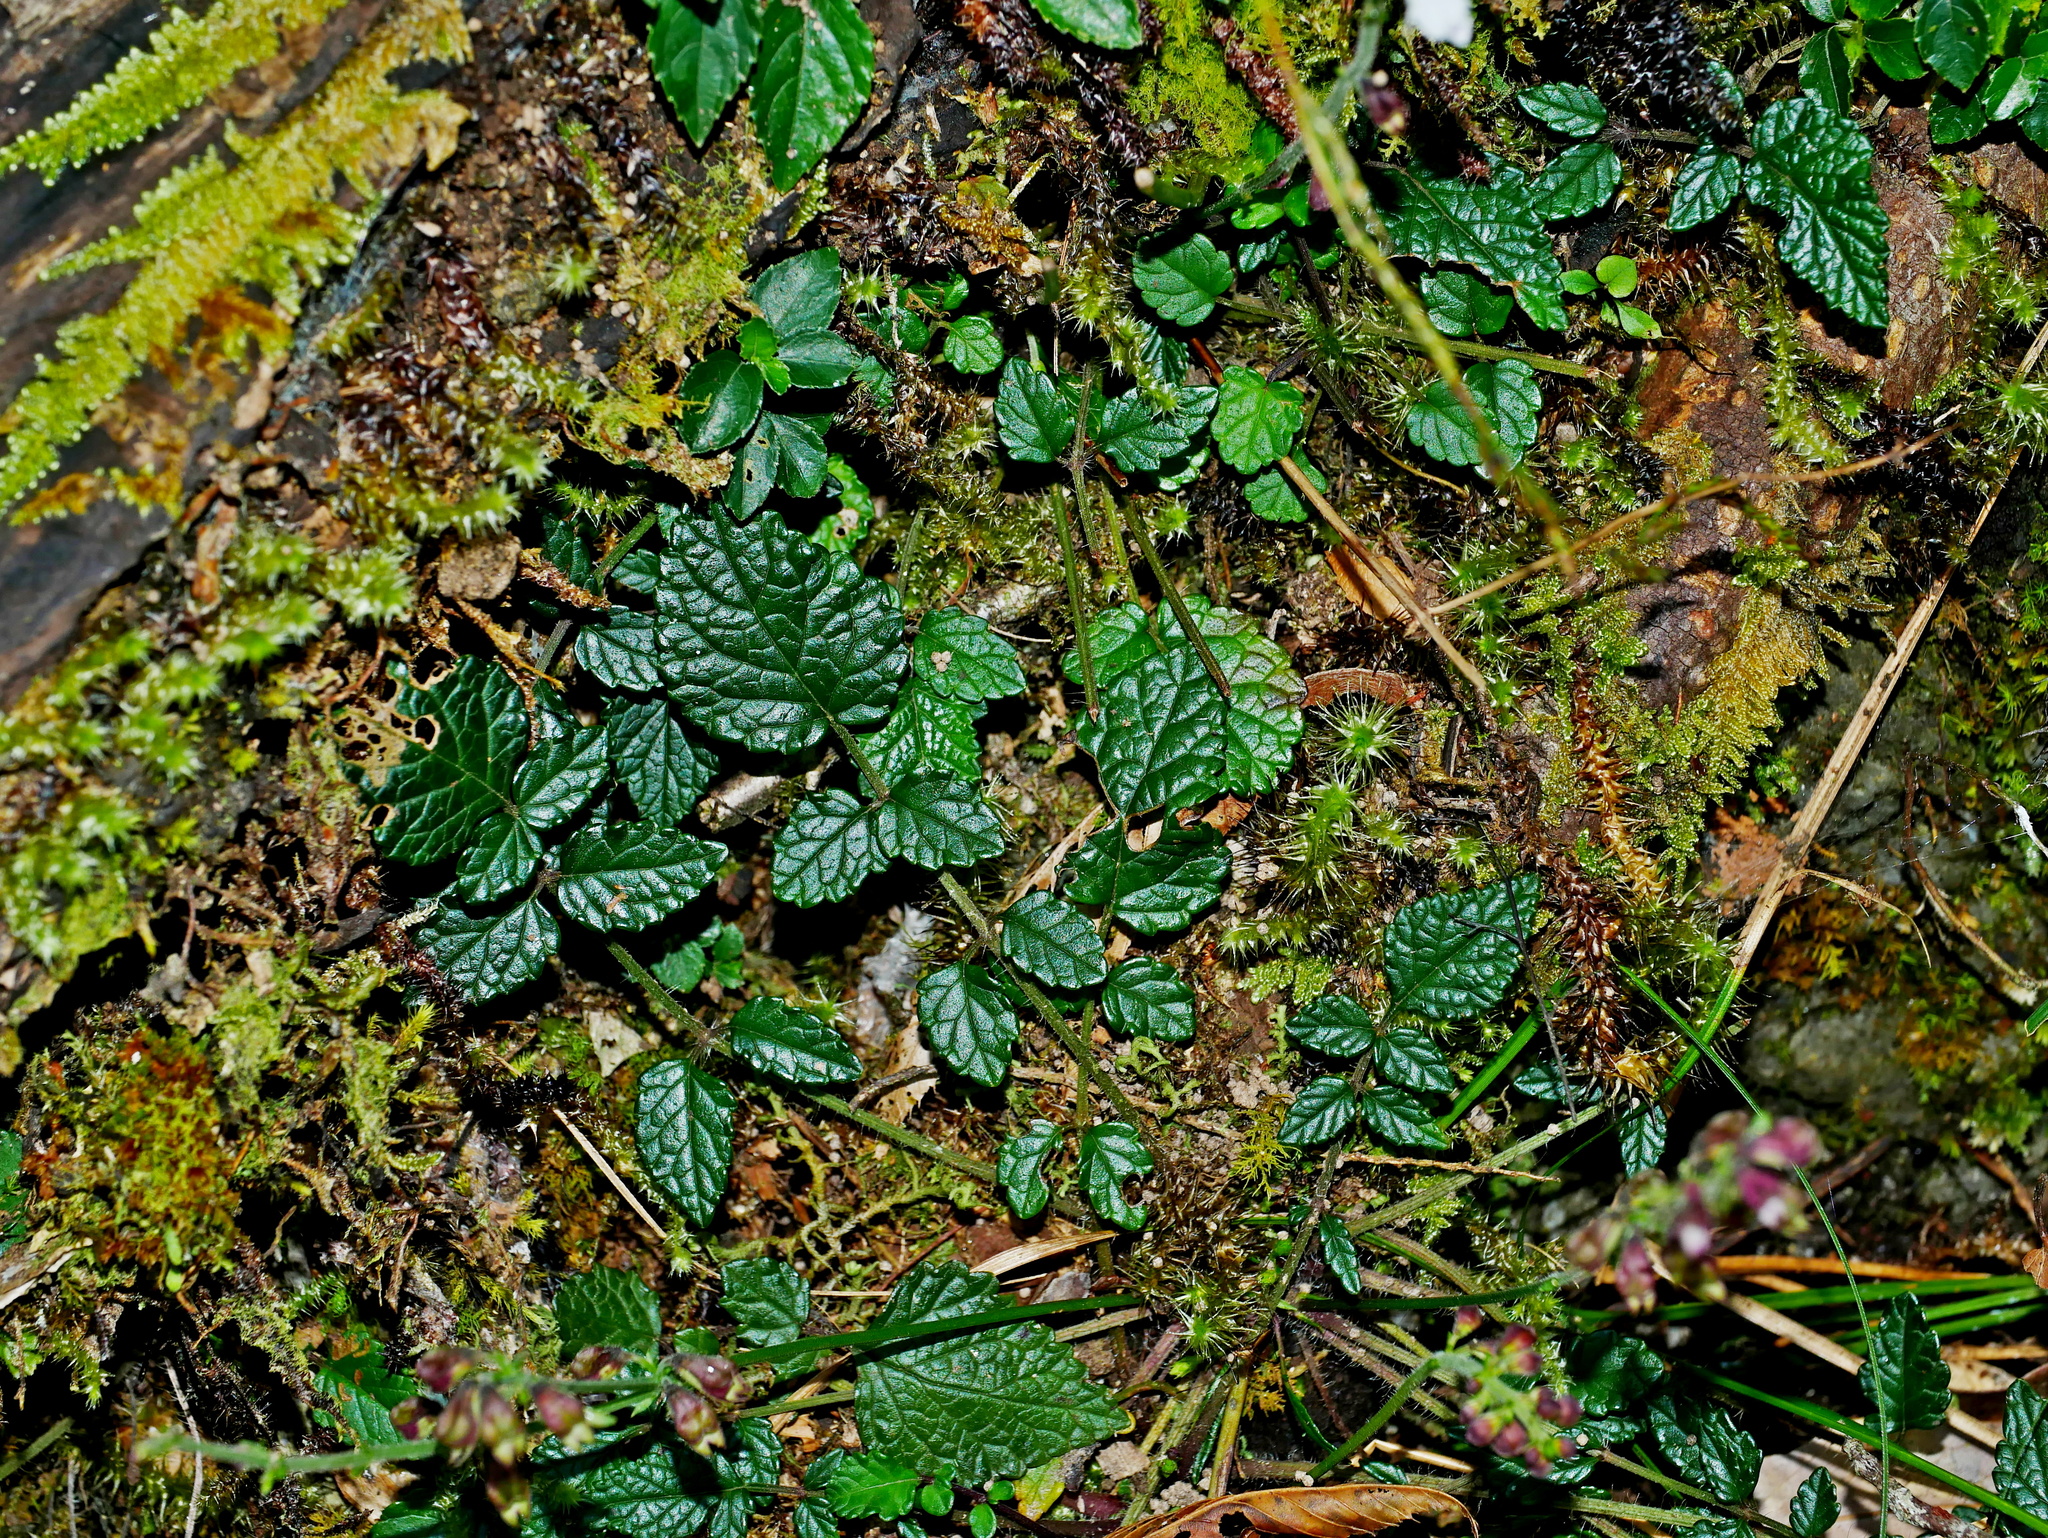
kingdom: Plantae
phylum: Tracheophyta
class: Magnoliopsida
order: Lamiales
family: Lamiaceae
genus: Salvia
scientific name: Salvia scapiformis
